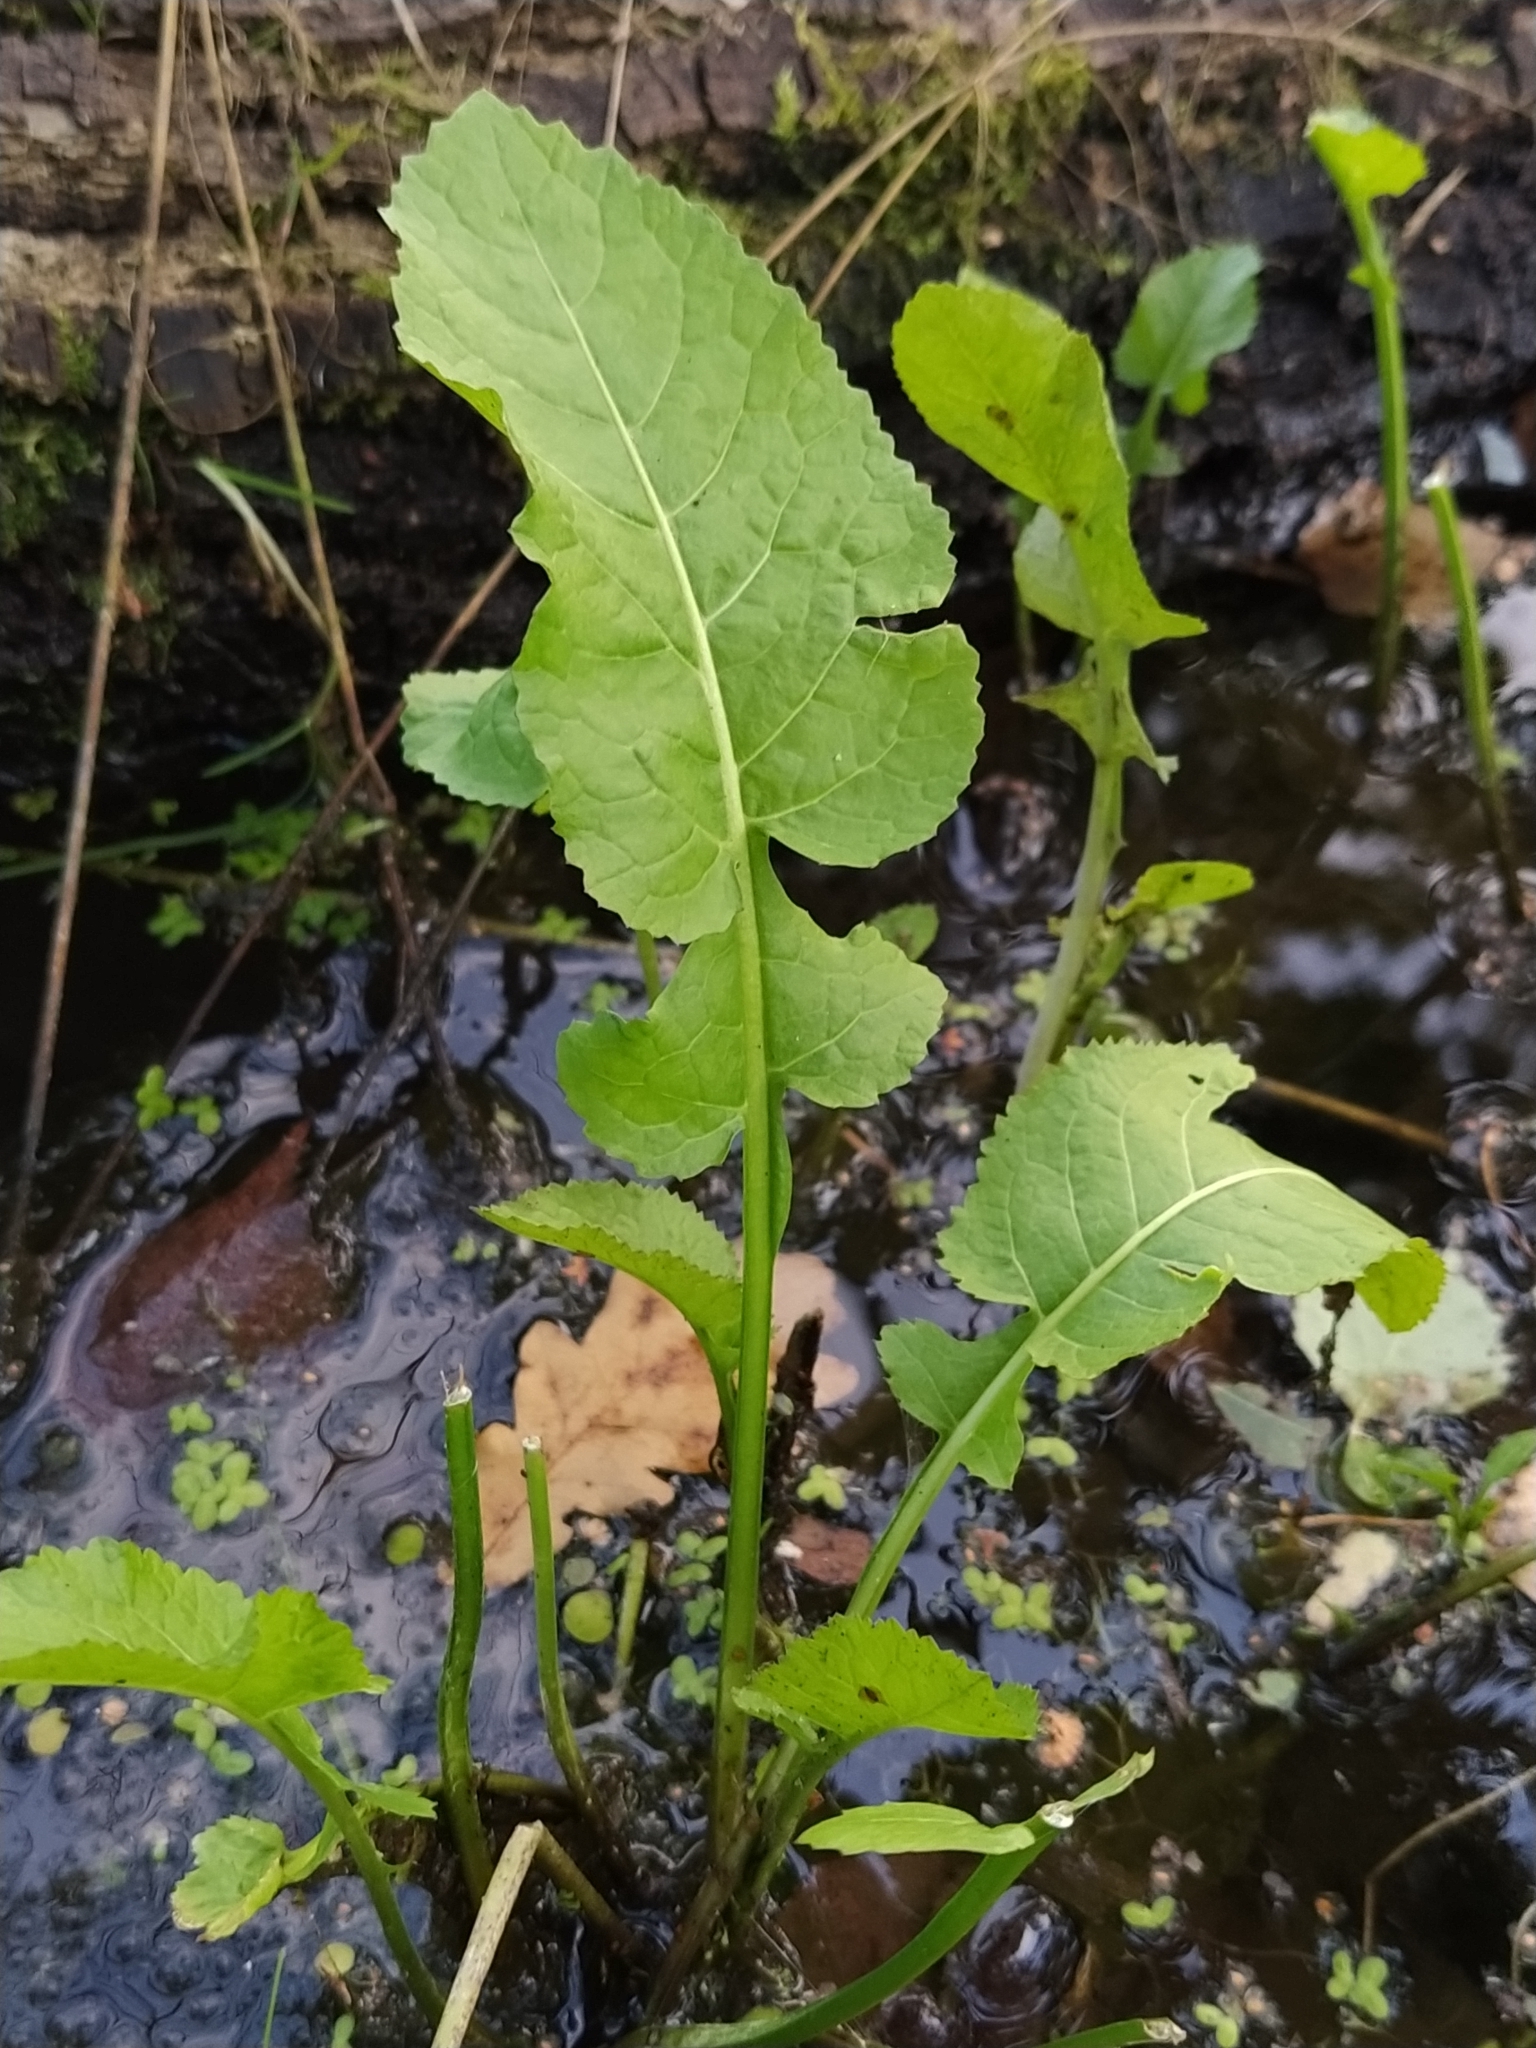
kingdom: Plantae
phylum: Tracheophyta
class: Magnoliopsida
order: Brassicales
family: Brassicaceae
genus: Rorippa
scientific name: Rorippa amphibia
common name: Great yellow-cress
